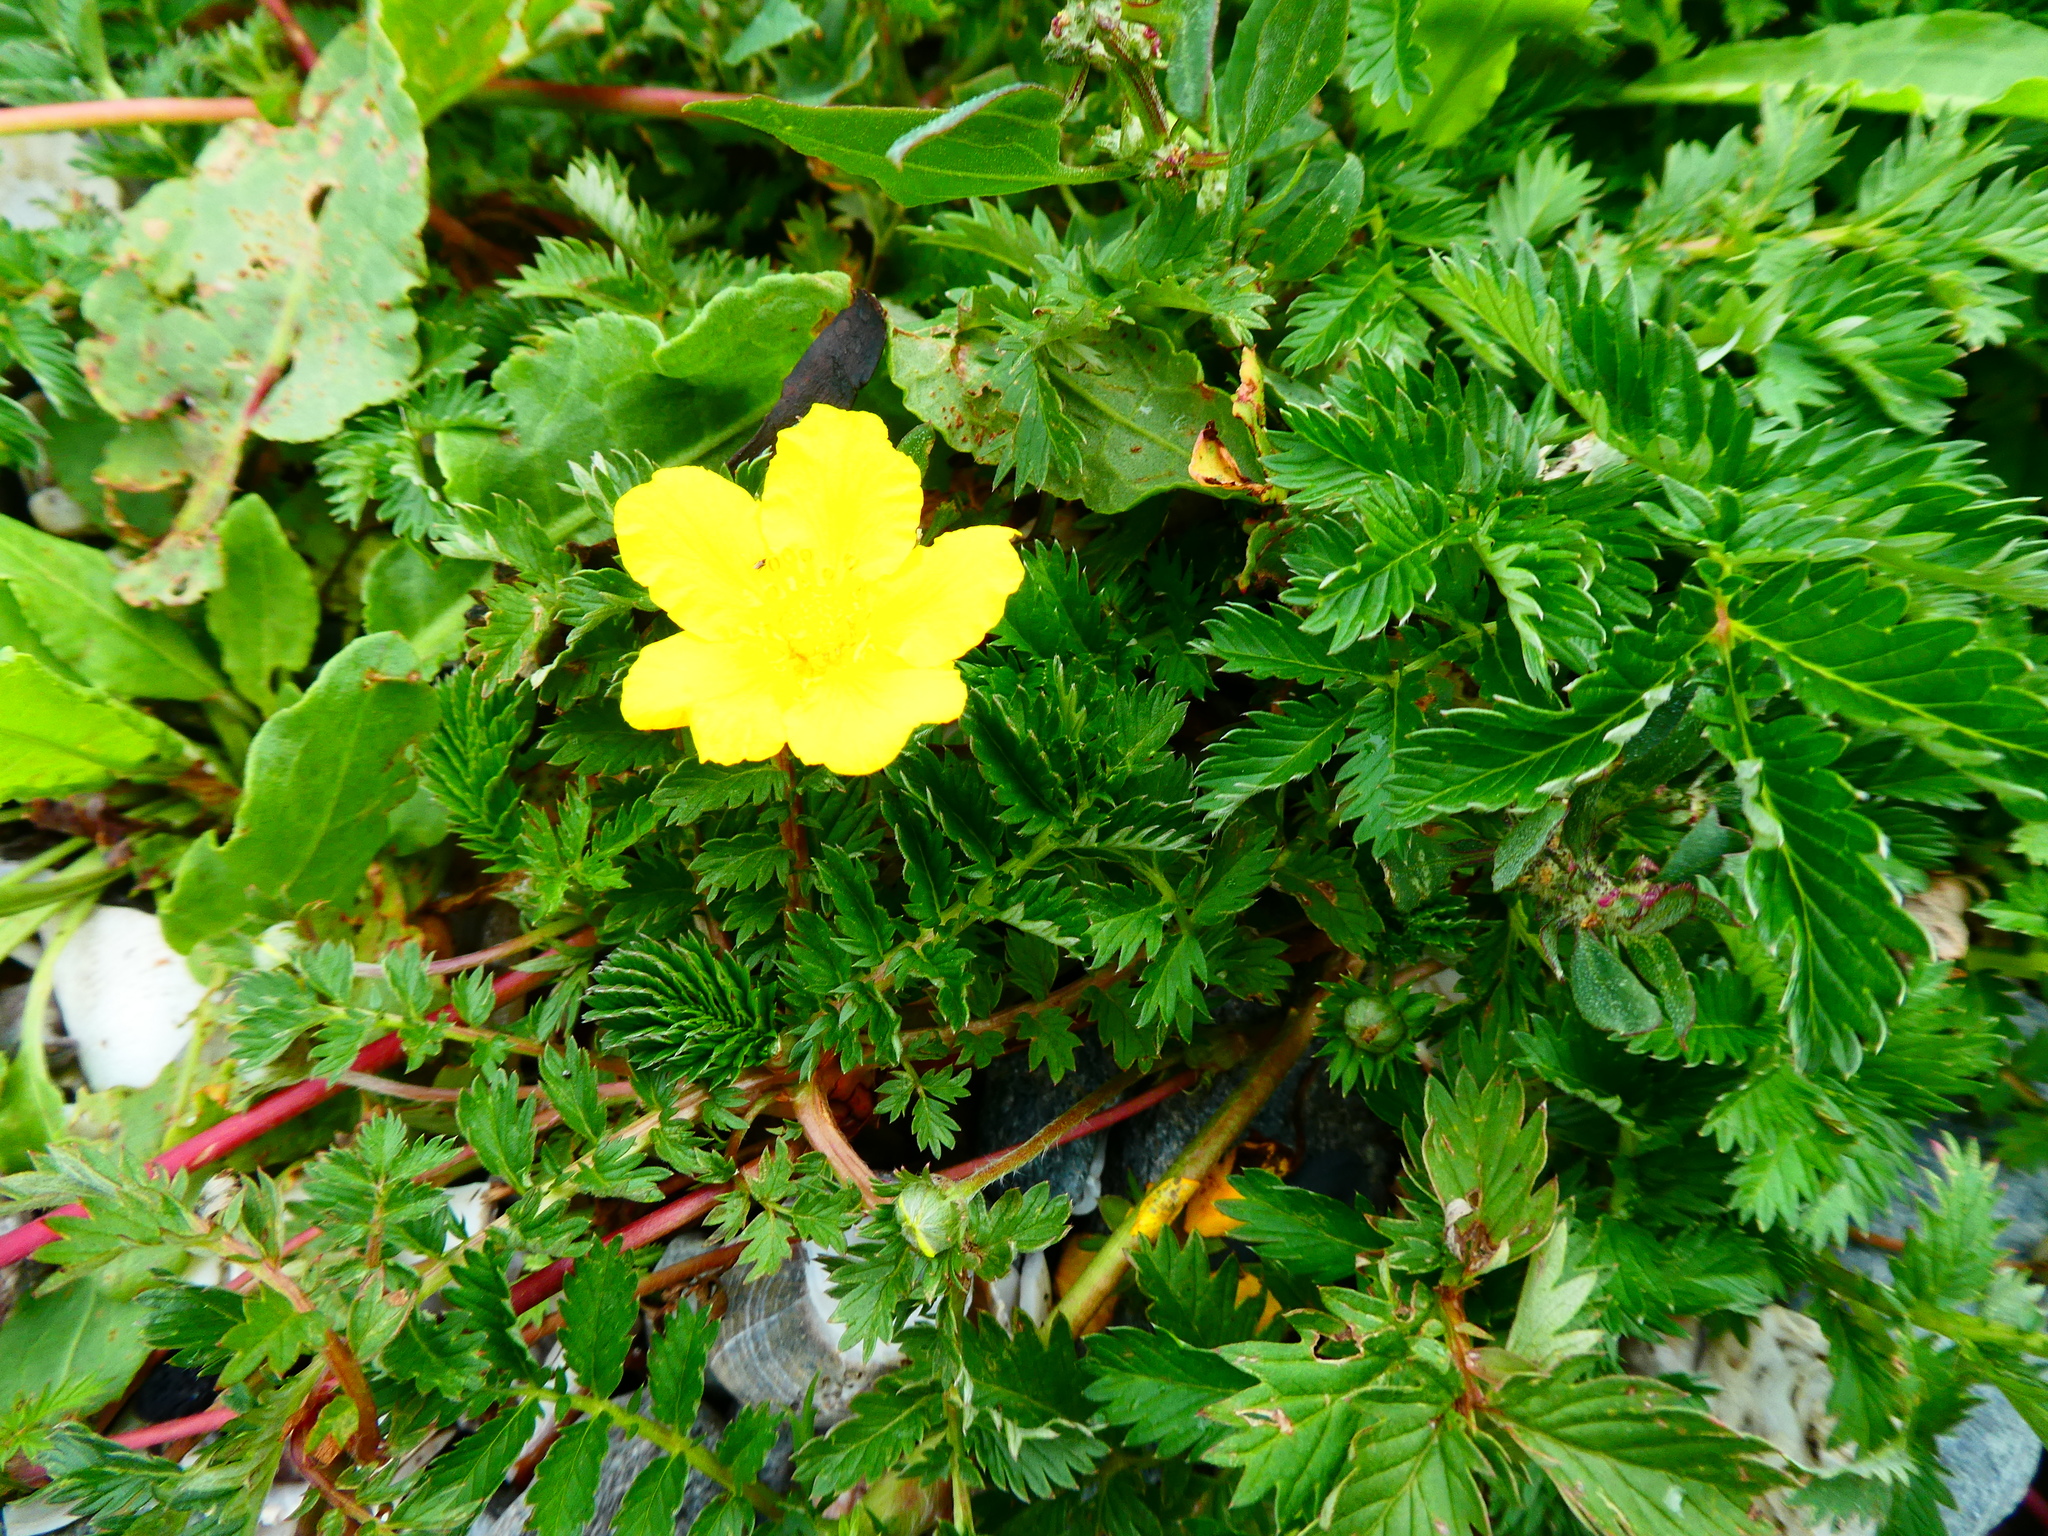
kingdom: Plantae
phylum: Tracheophyta
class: Magnoliopsida
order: Rosales
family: Rosaceae
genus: Argentina
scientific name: Argentina anserina
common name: Common silverweed
